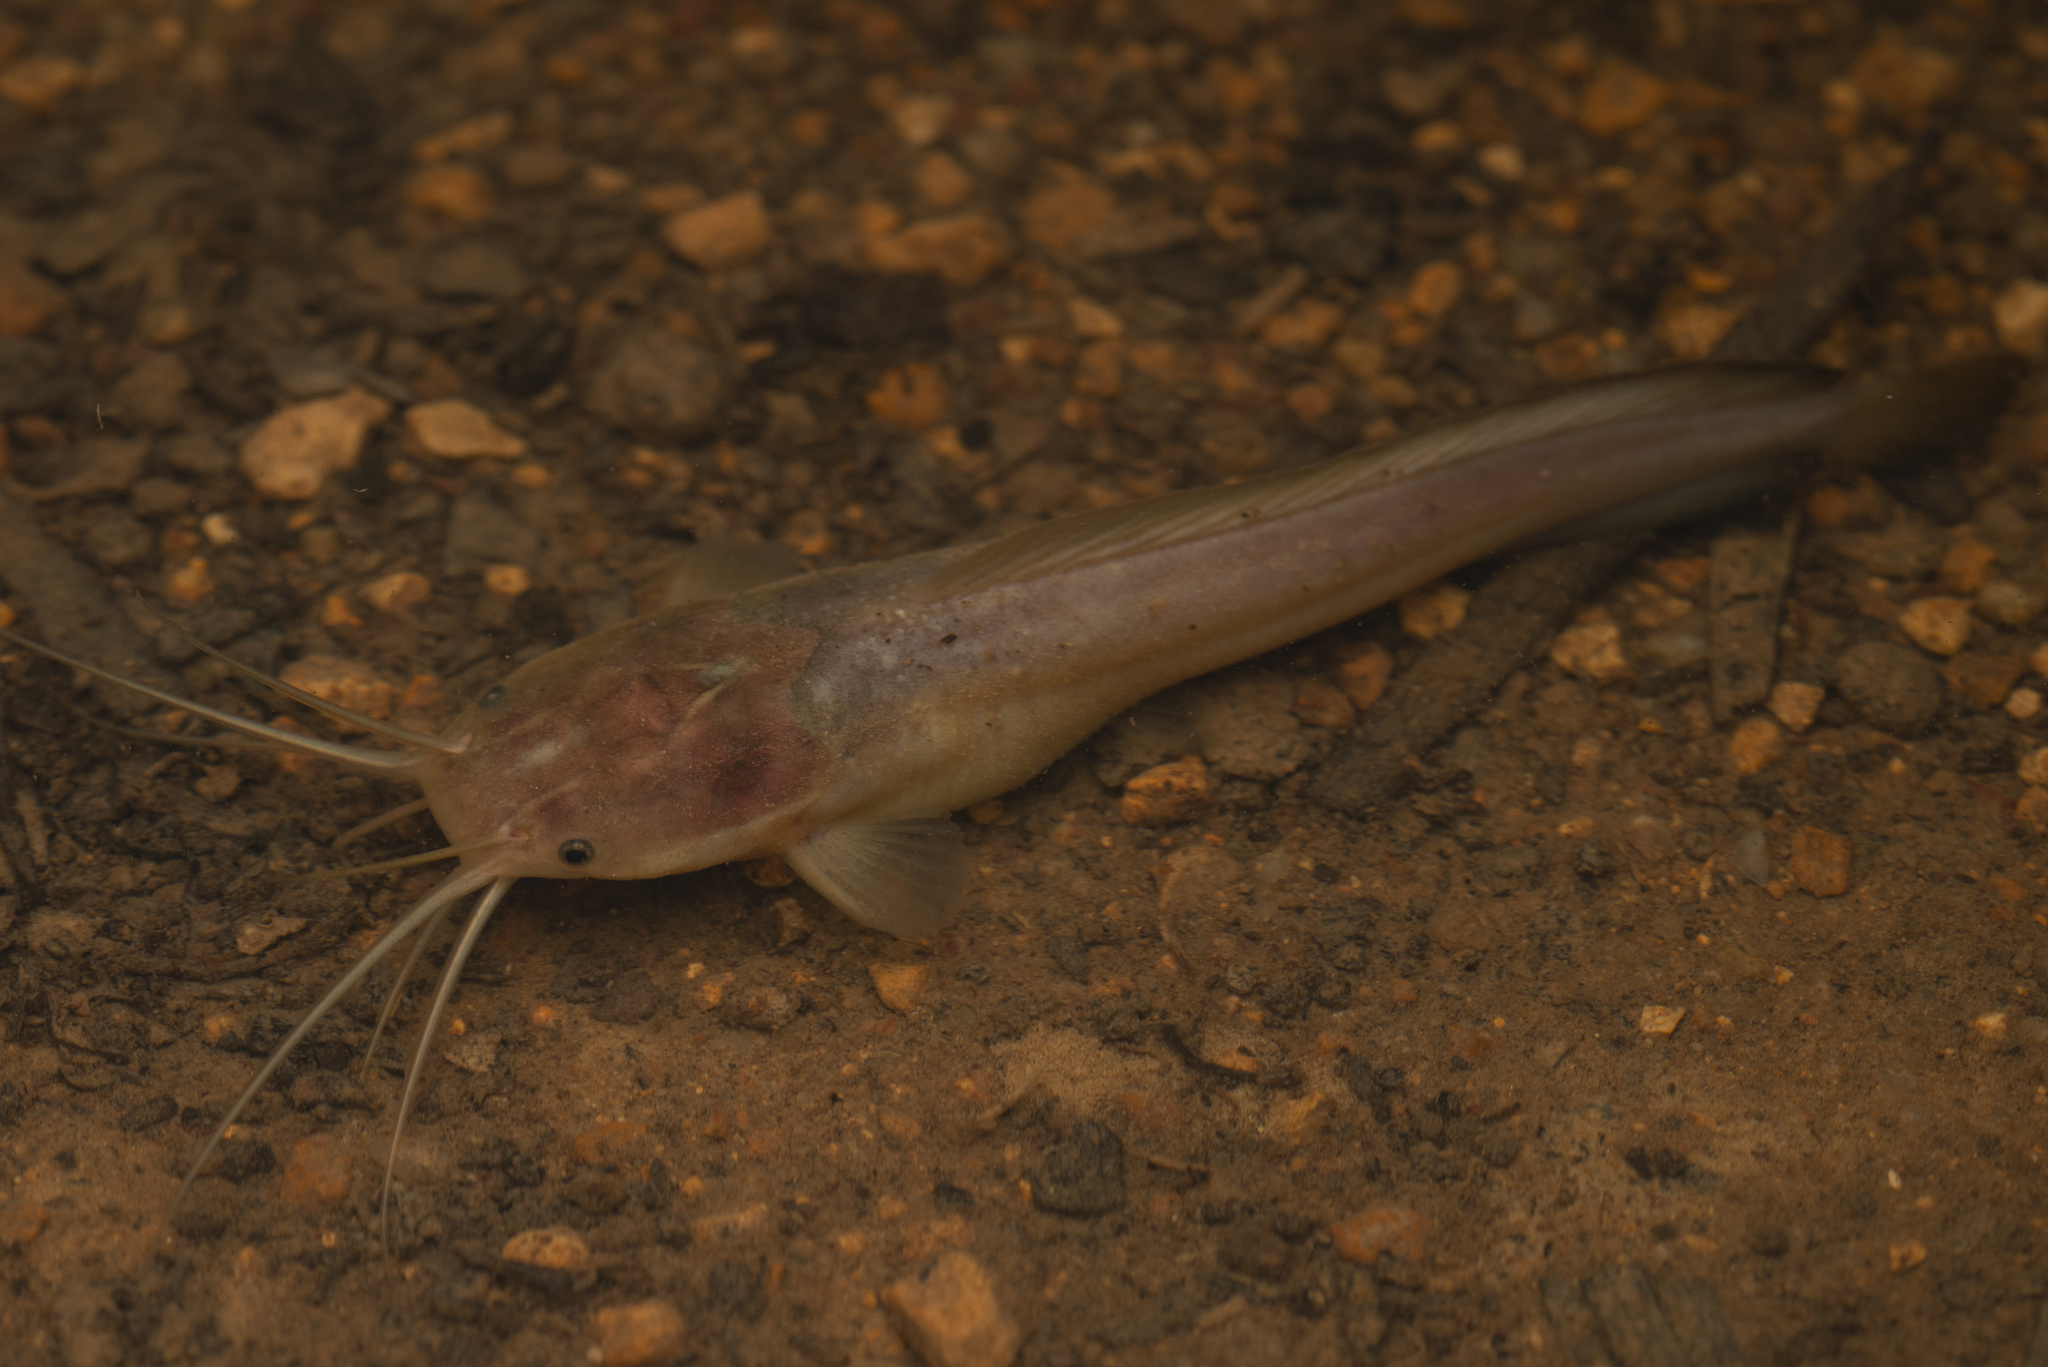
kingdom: Animalia
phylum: Chordata
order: Siluriformes
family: Clariidae
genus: Clarias
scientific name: Clarias fuscus
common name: Chinese catfish
